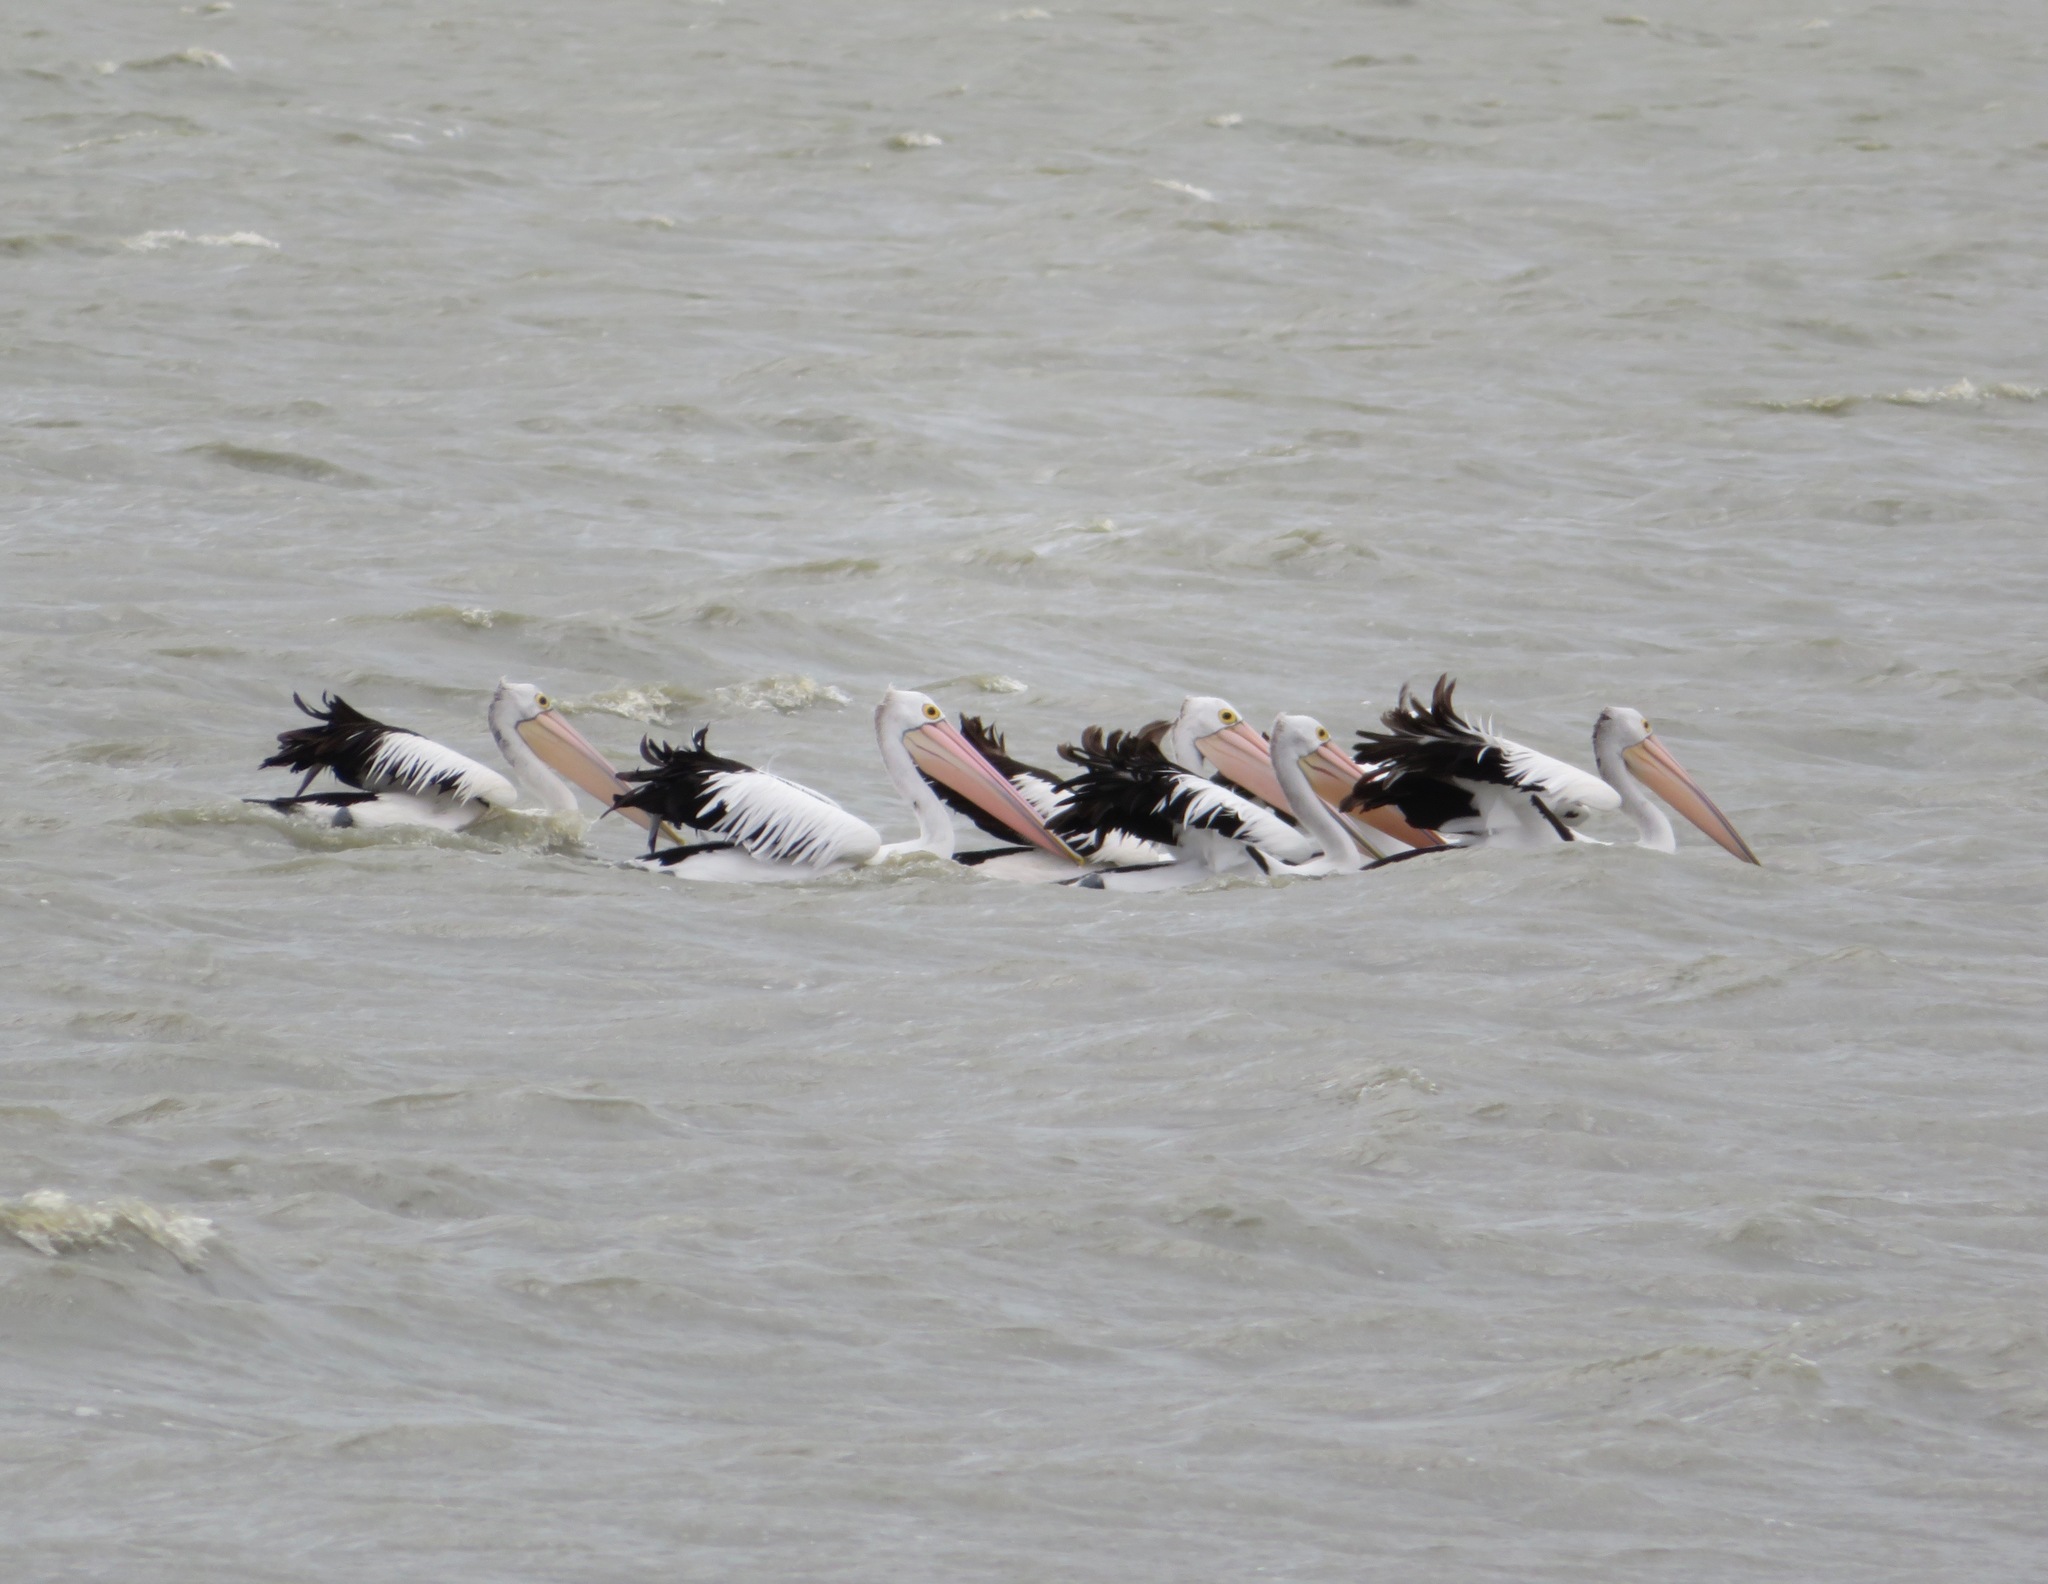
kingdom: Animalia
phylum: Chordata
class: Aves
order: Pelecaniformes
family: Pelecanidae
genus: Pelecanus
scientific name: Pelecanus conspicillatus
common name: Australian pelican
